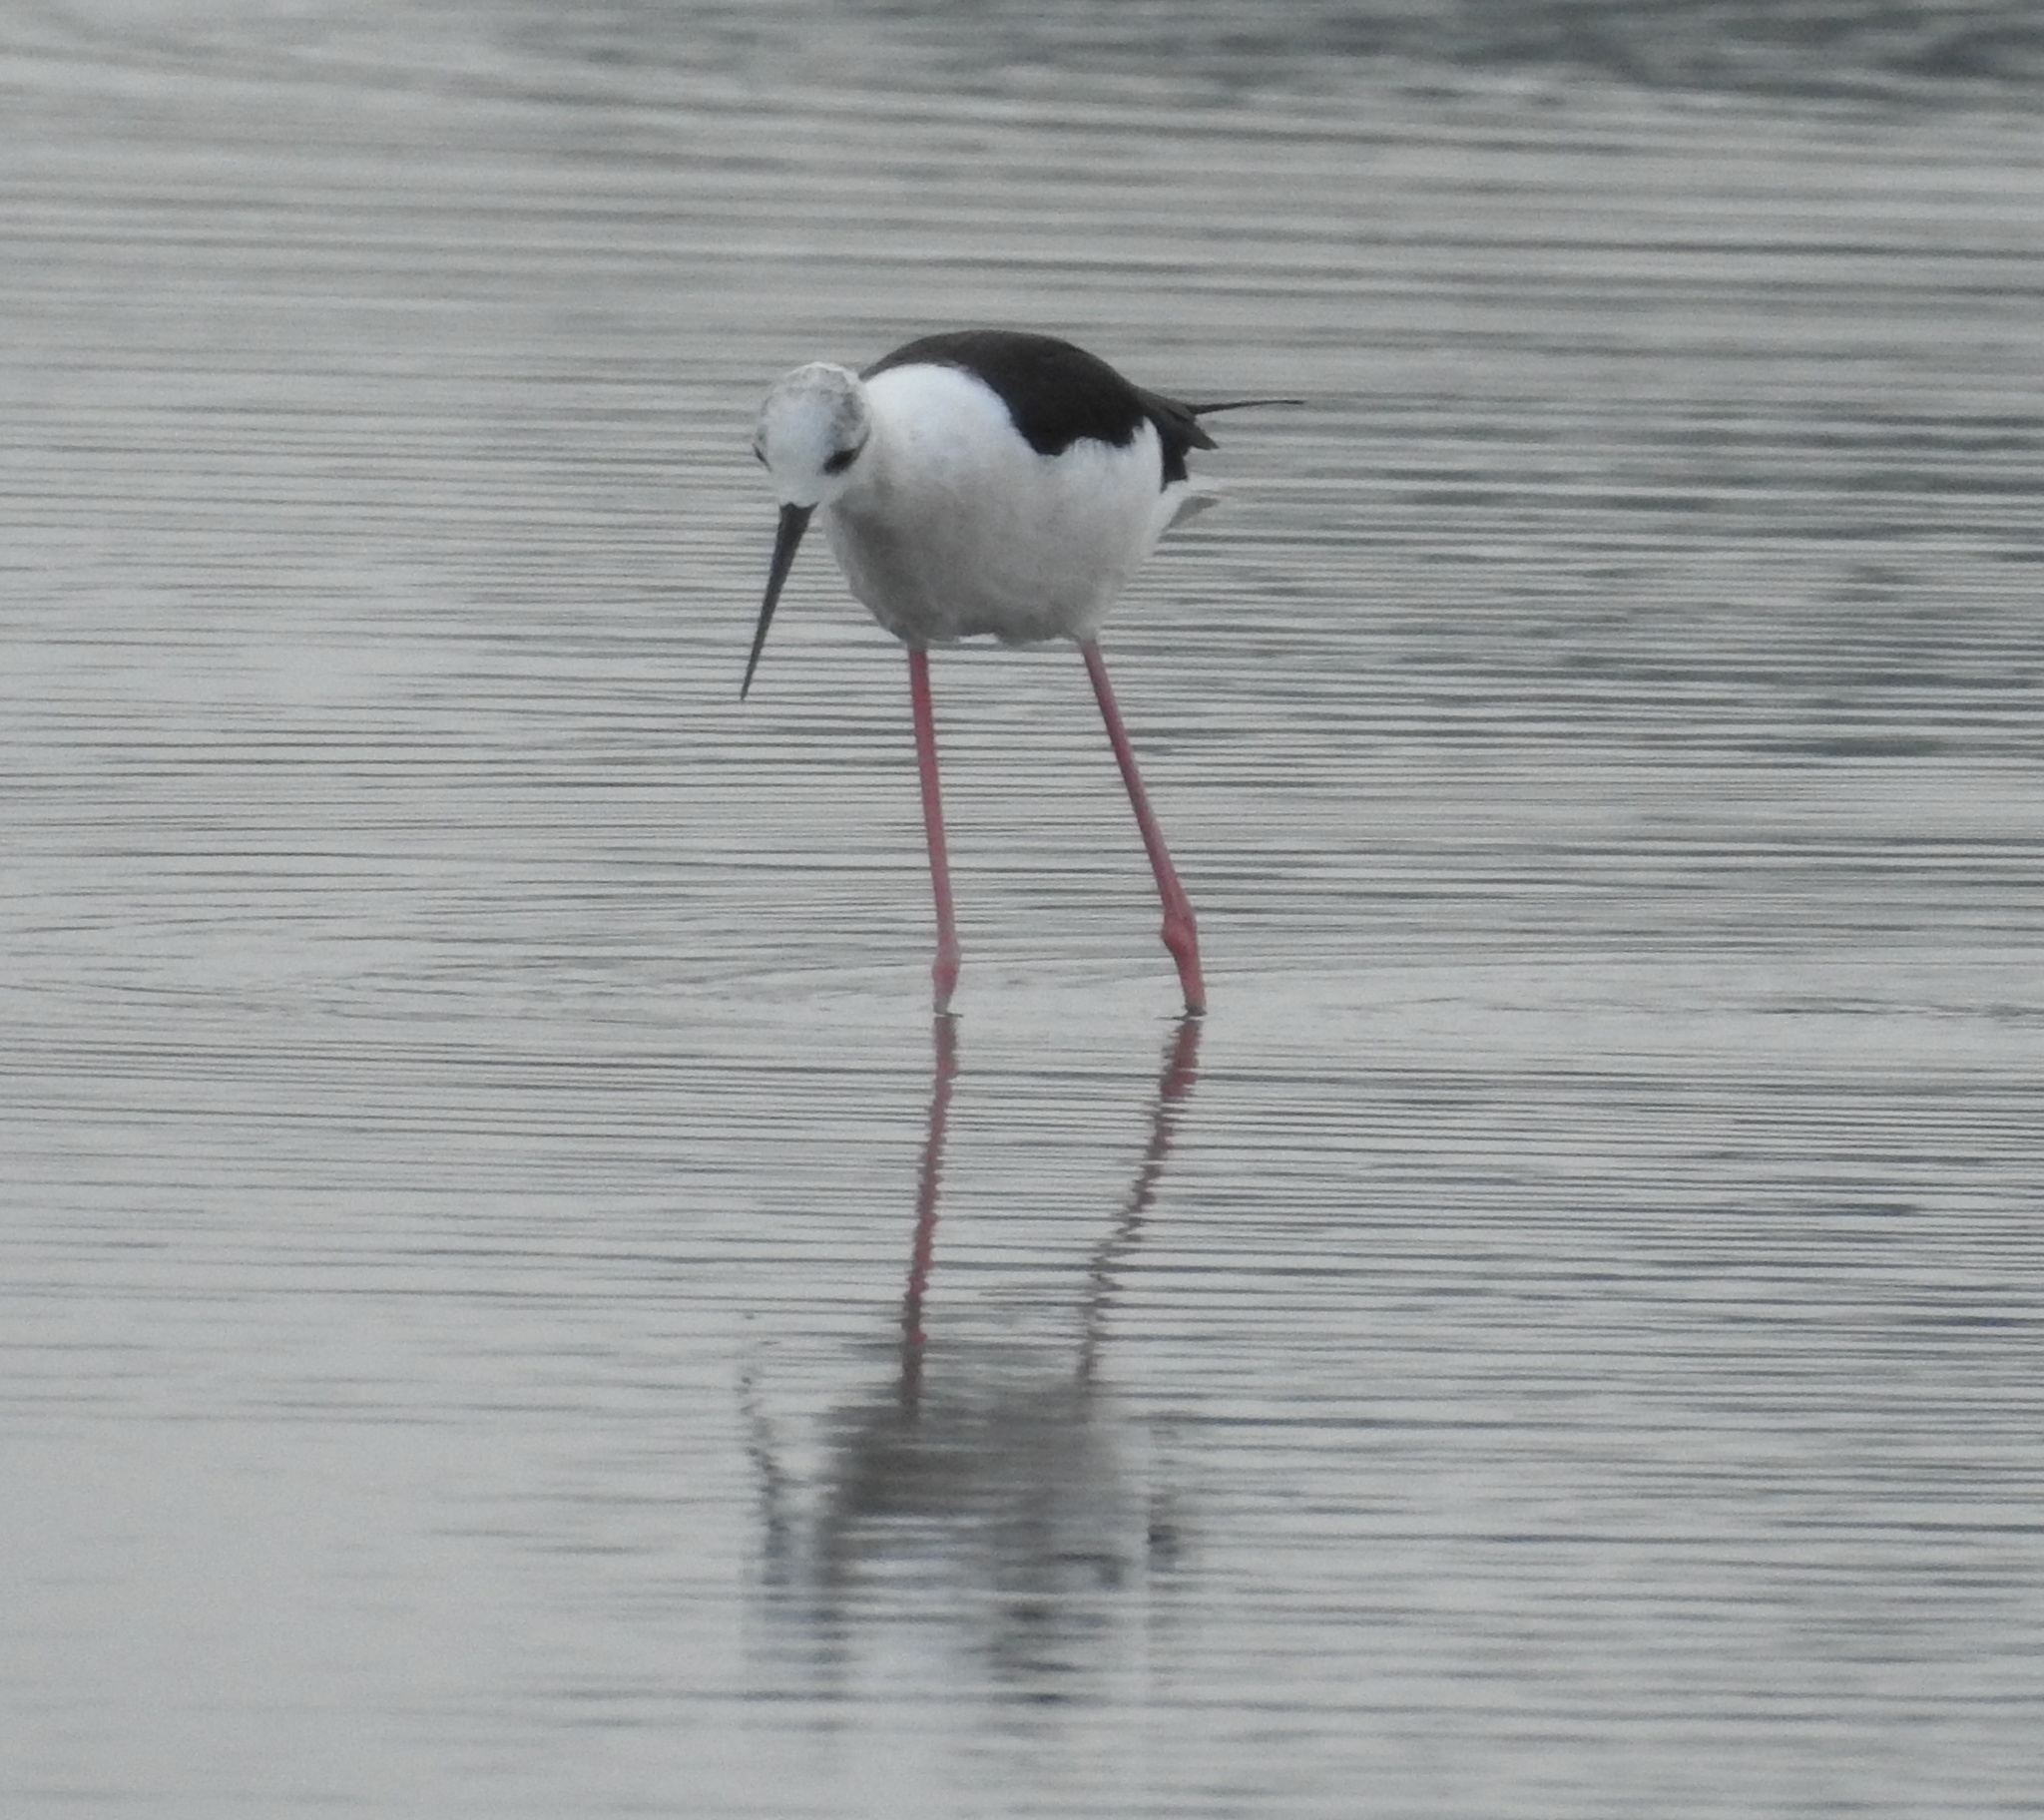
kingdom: Animalia
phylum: Chordata
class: Aves
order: Charadriiformes
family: Recurvirostridae
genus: Himantopus
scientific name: Himantopus himantopus
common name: Black-winged stilt
